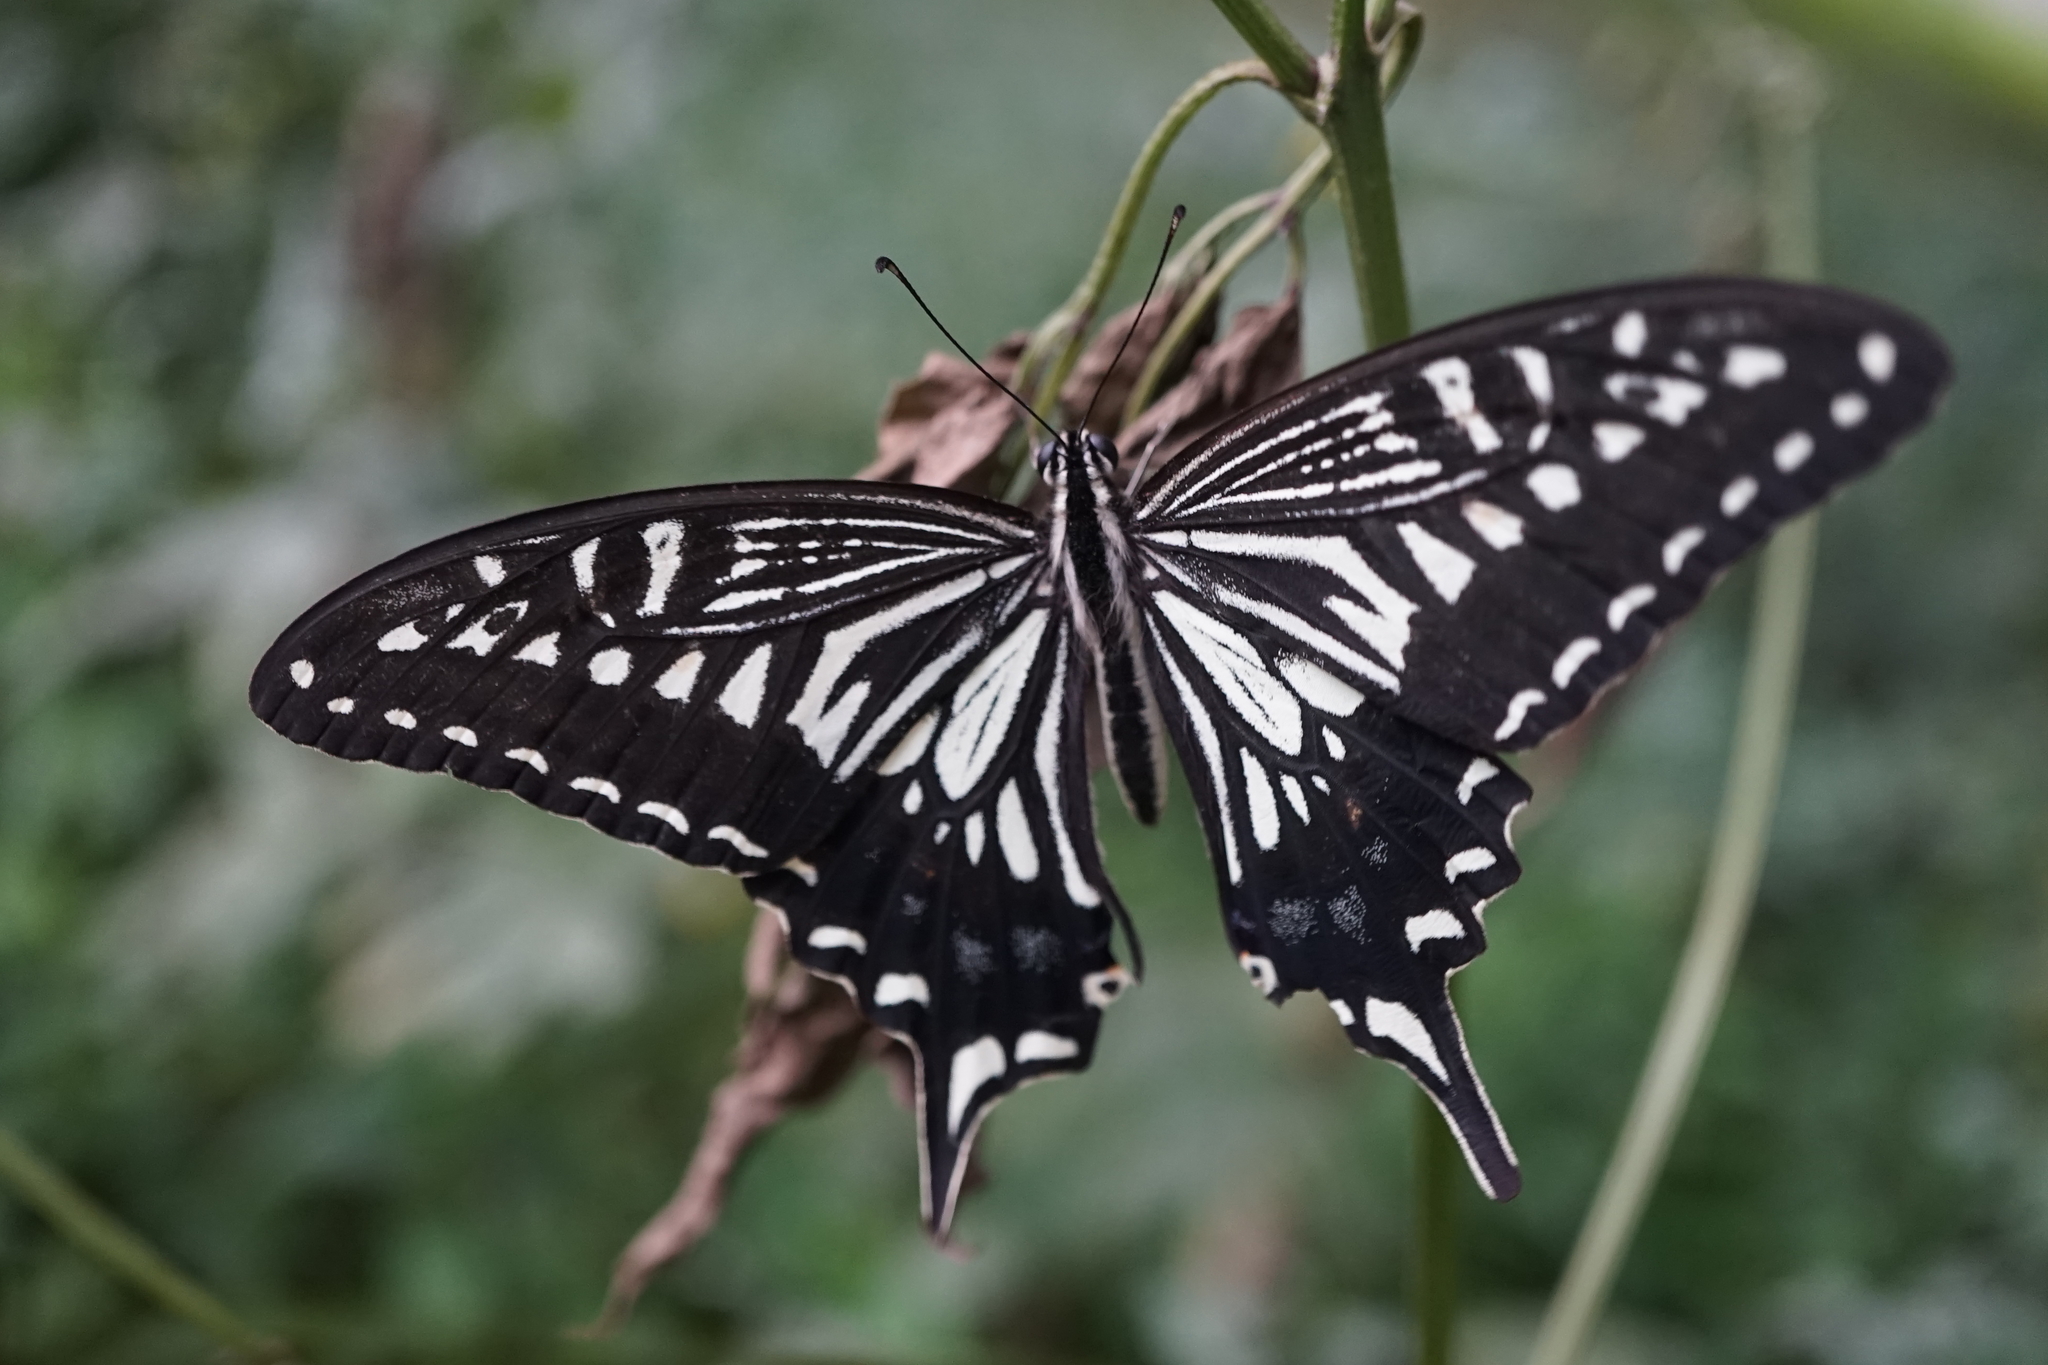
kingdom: Animalia
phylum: Arthropoda
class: Insecta
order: Lepidoptera
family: Papilionidae
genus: Papilio
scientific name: Papilio xuthus
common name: Asian swallowtail
